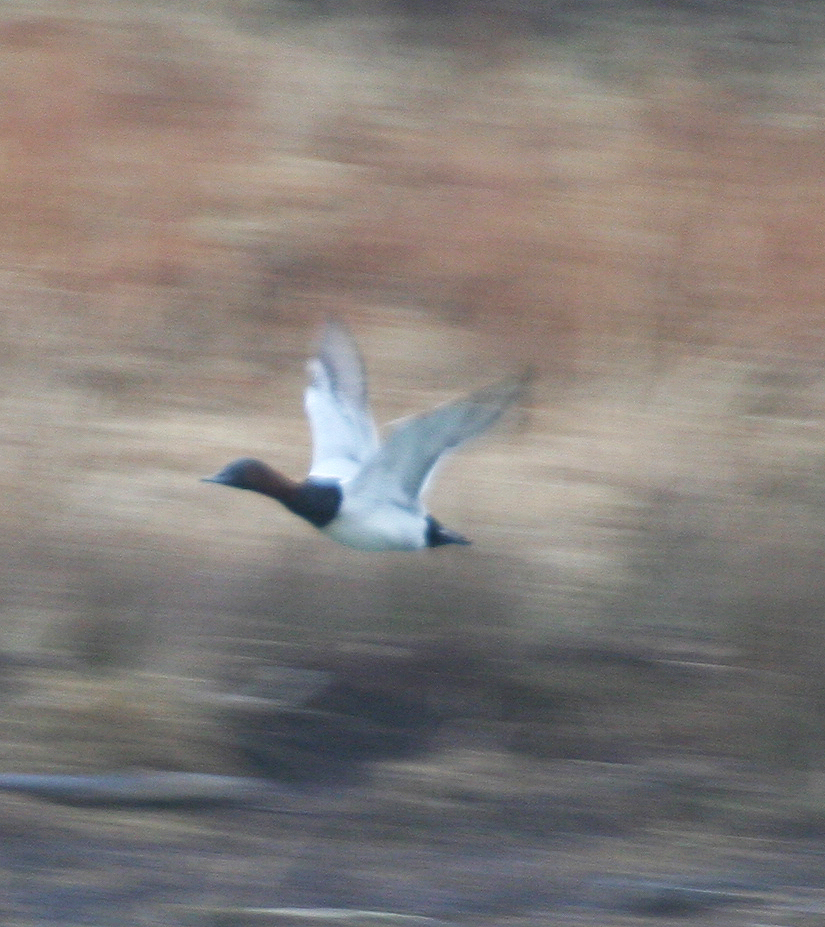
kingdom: Animalia
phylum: Chordata
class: Aves
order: Anseriformes
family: Anatidae
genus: Aythya
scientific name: Aythya valisineria
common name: Canvasback
